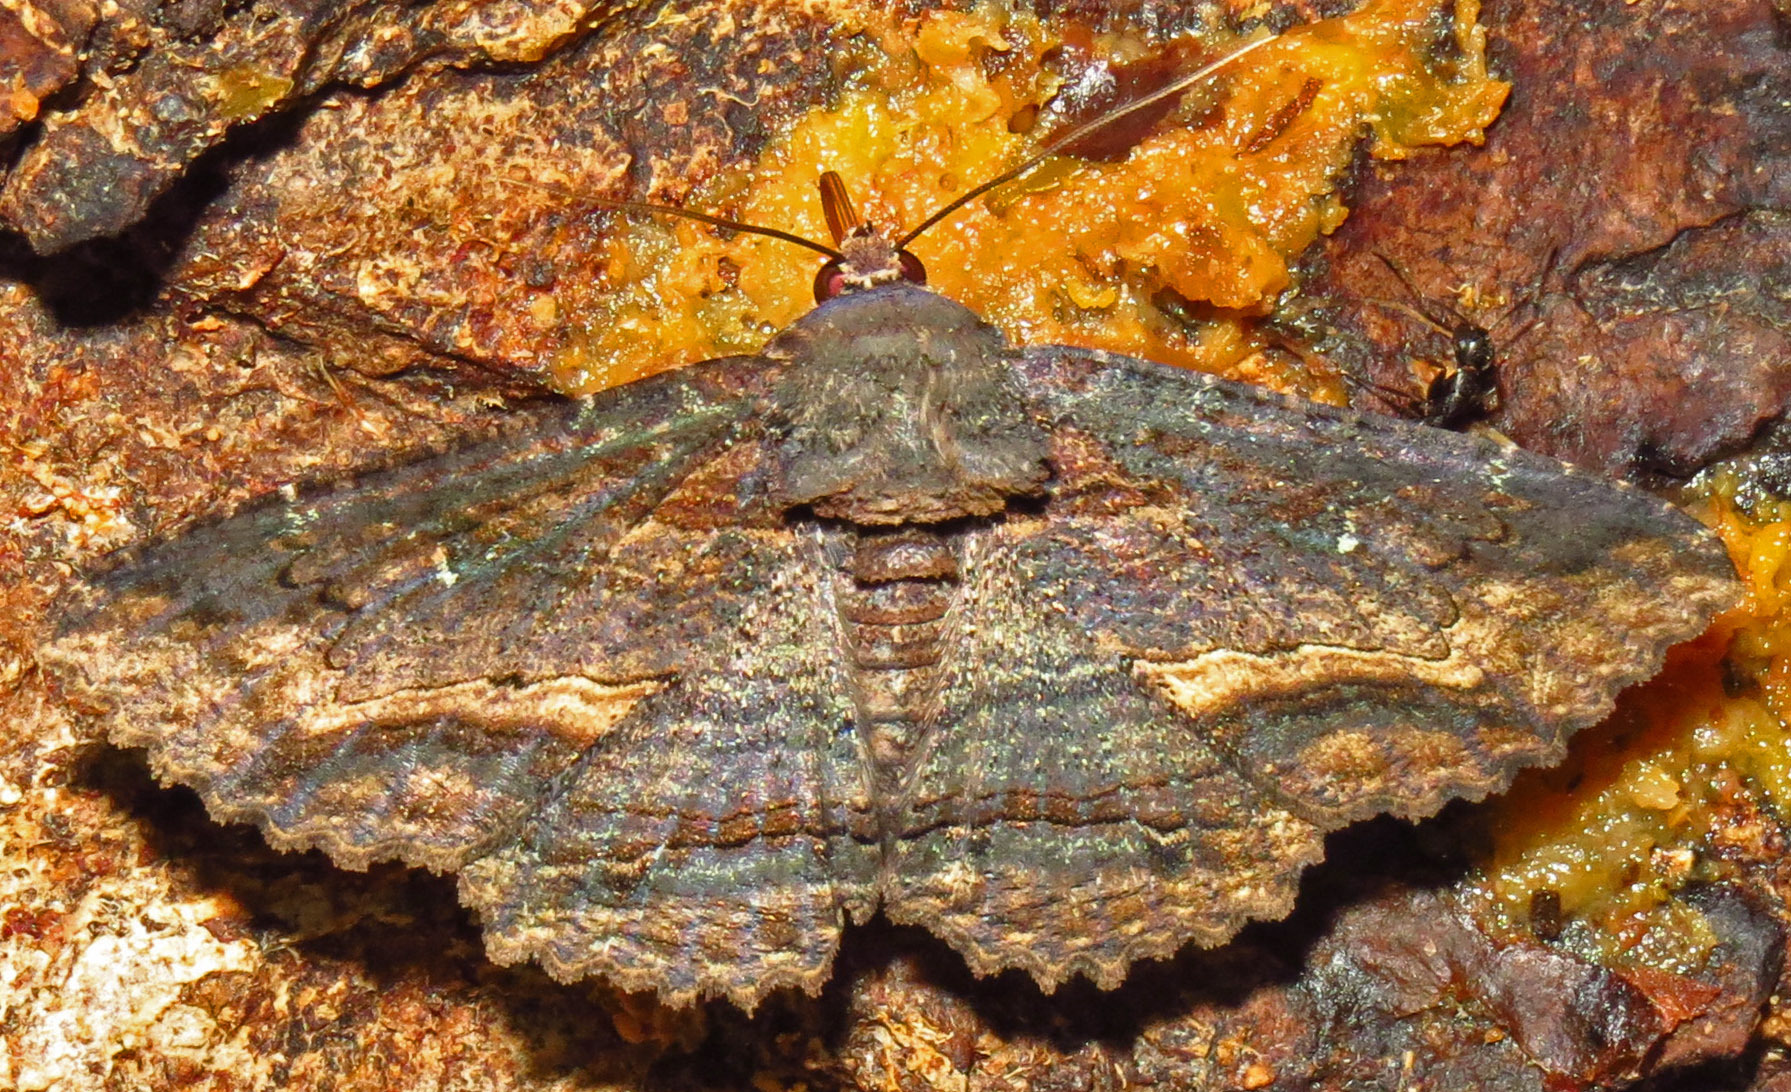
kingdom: Animalia
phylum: Arthropoda
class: Insecta
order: Lepidoptera
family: Erebidae
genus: Zale
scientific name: Zale lunata
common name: Lunate zale moth
